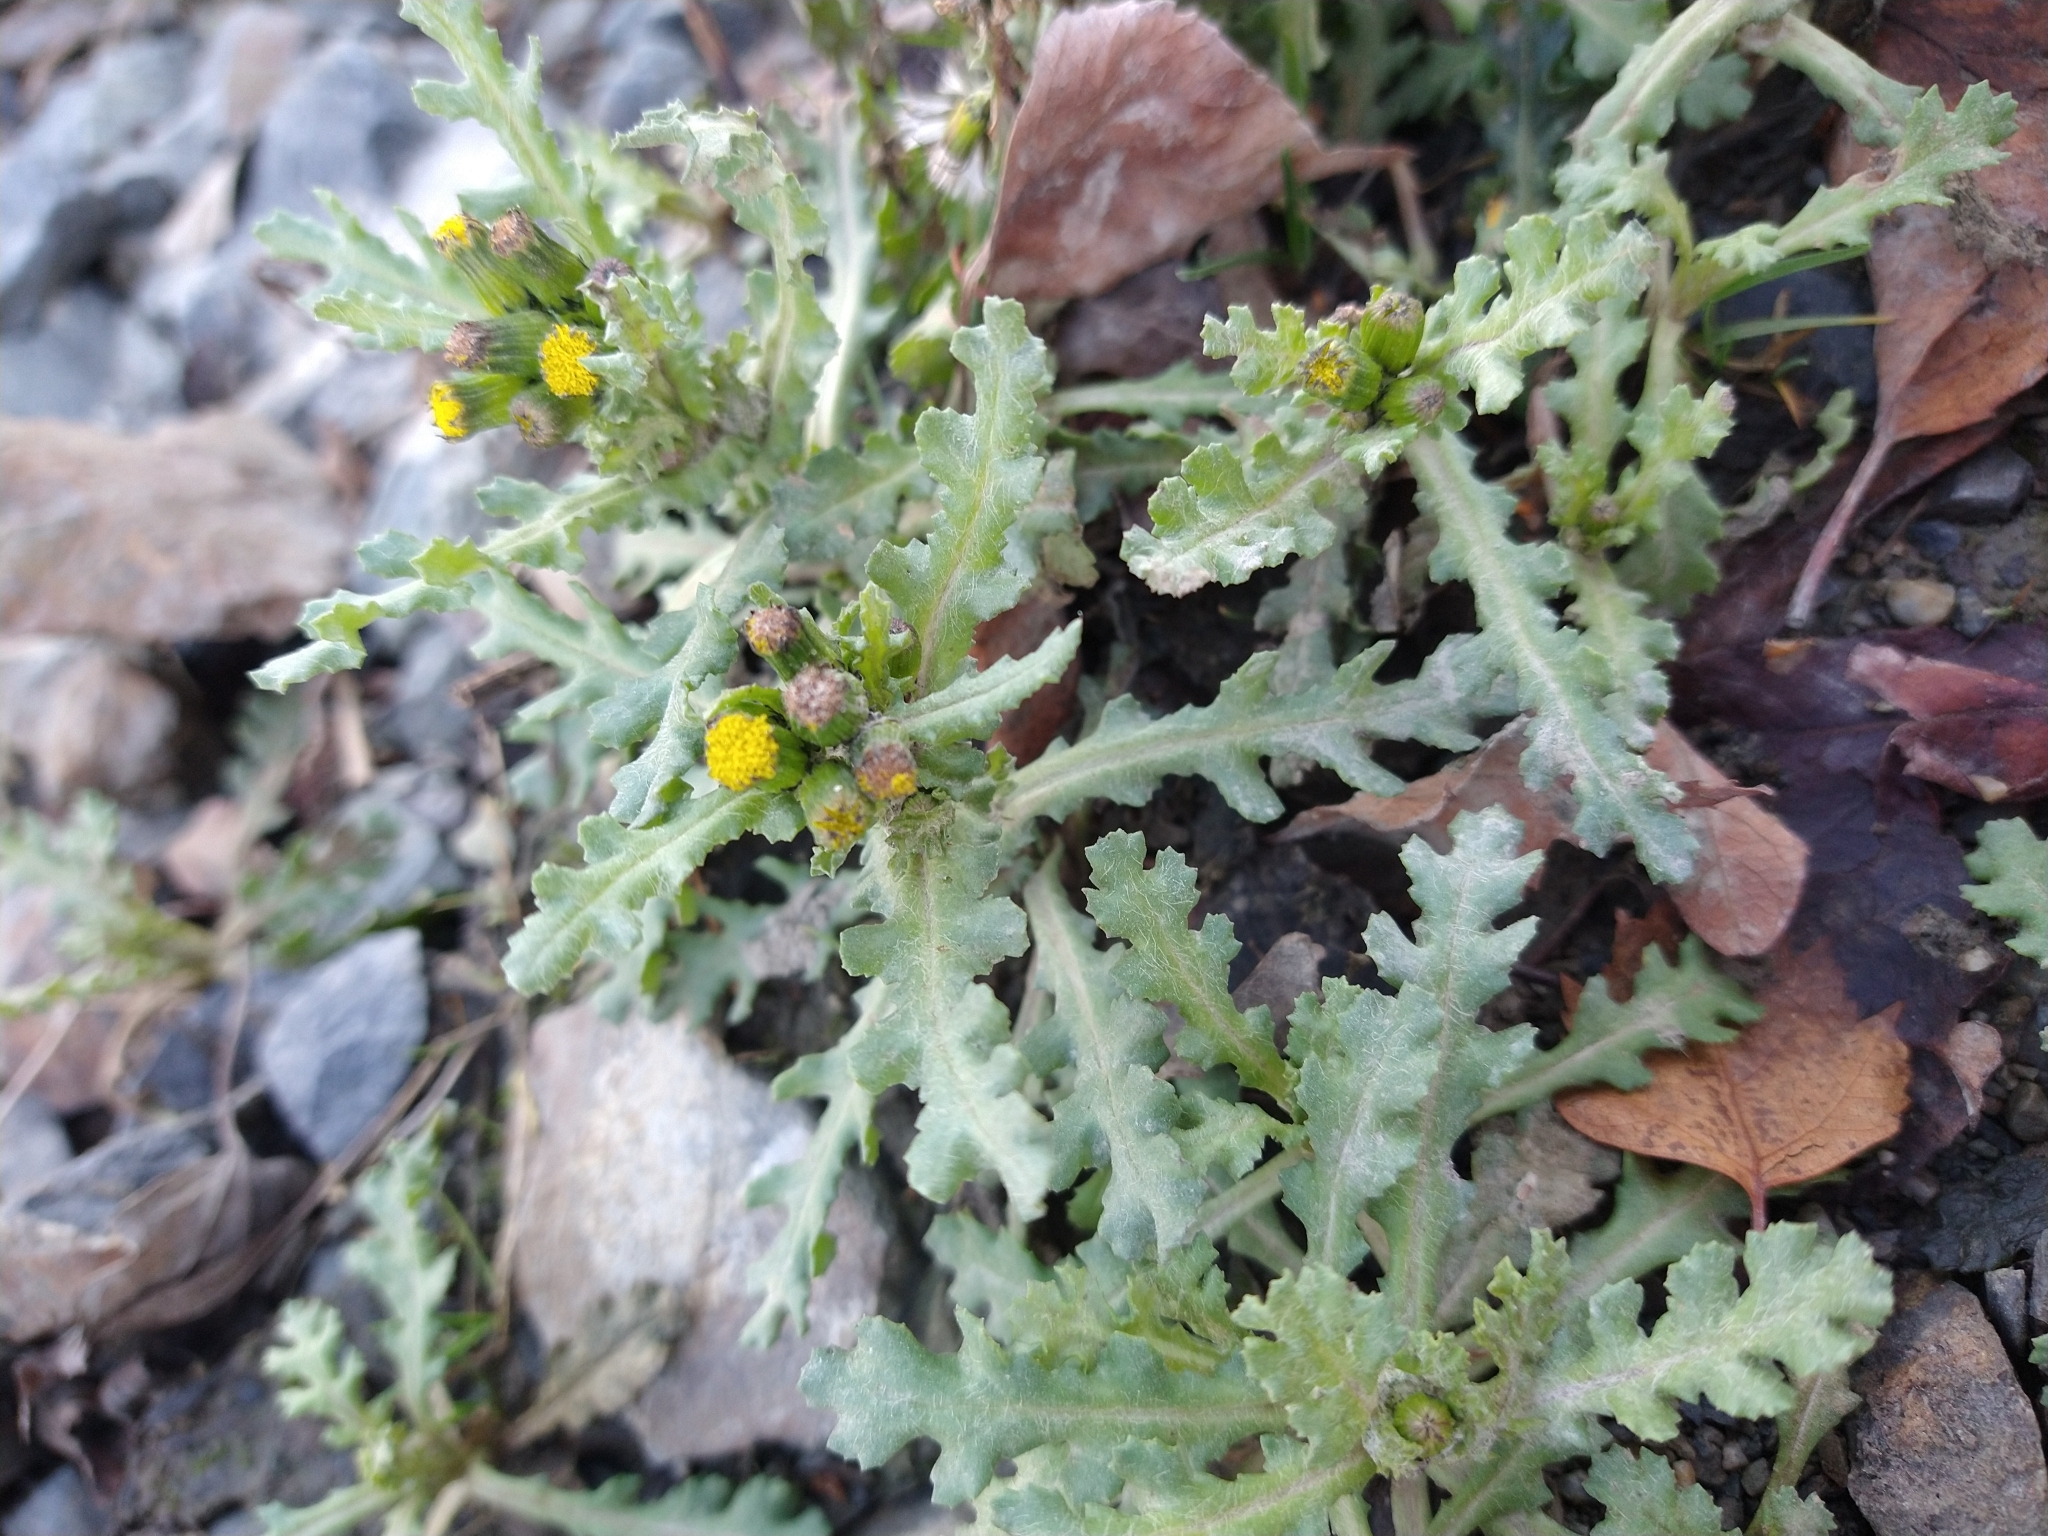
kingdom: Plantae
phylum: Tracheophyta
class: Magnoliopsida
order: Asterales
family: Asteraceae
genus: Senecio
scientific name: Senecio vulgaris
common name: Old-man-in-the-spring
